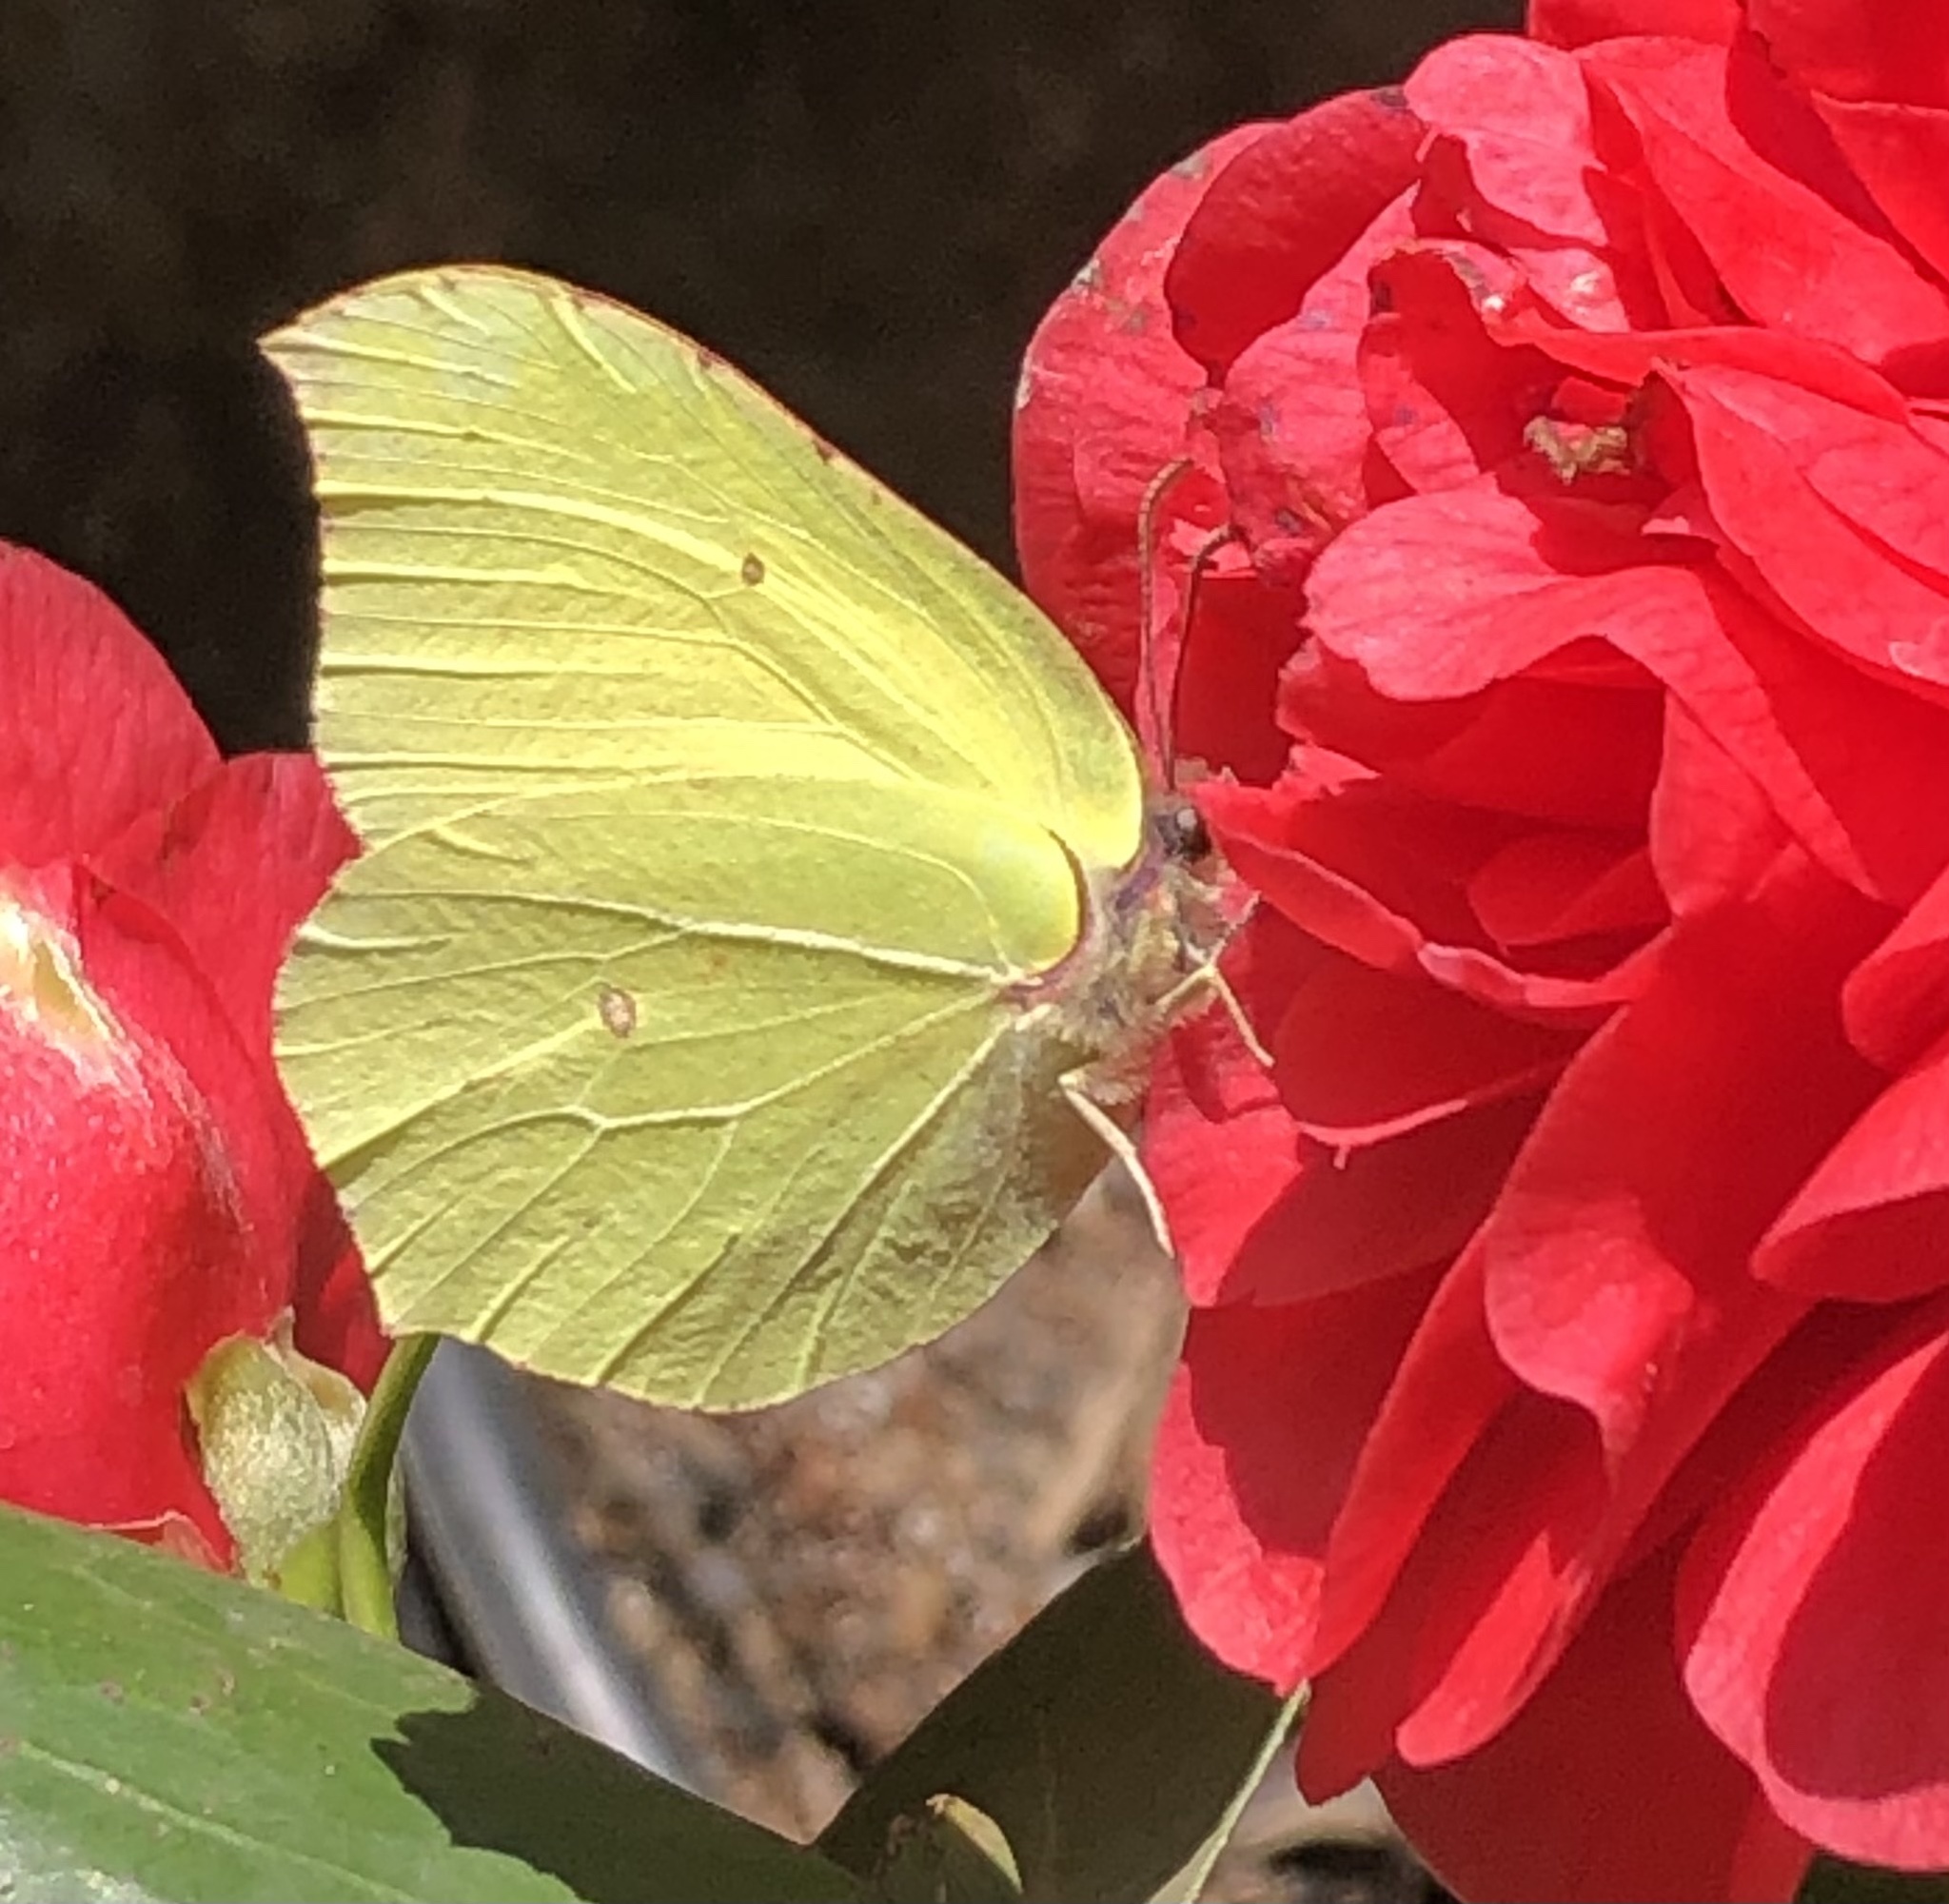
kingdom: Animalia
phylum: Arthropoda
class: Insecta
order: Lepidoptera
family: Pieridae
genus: Gonepteryx
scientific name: Gonepteryx rhamni
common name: Brimstone
